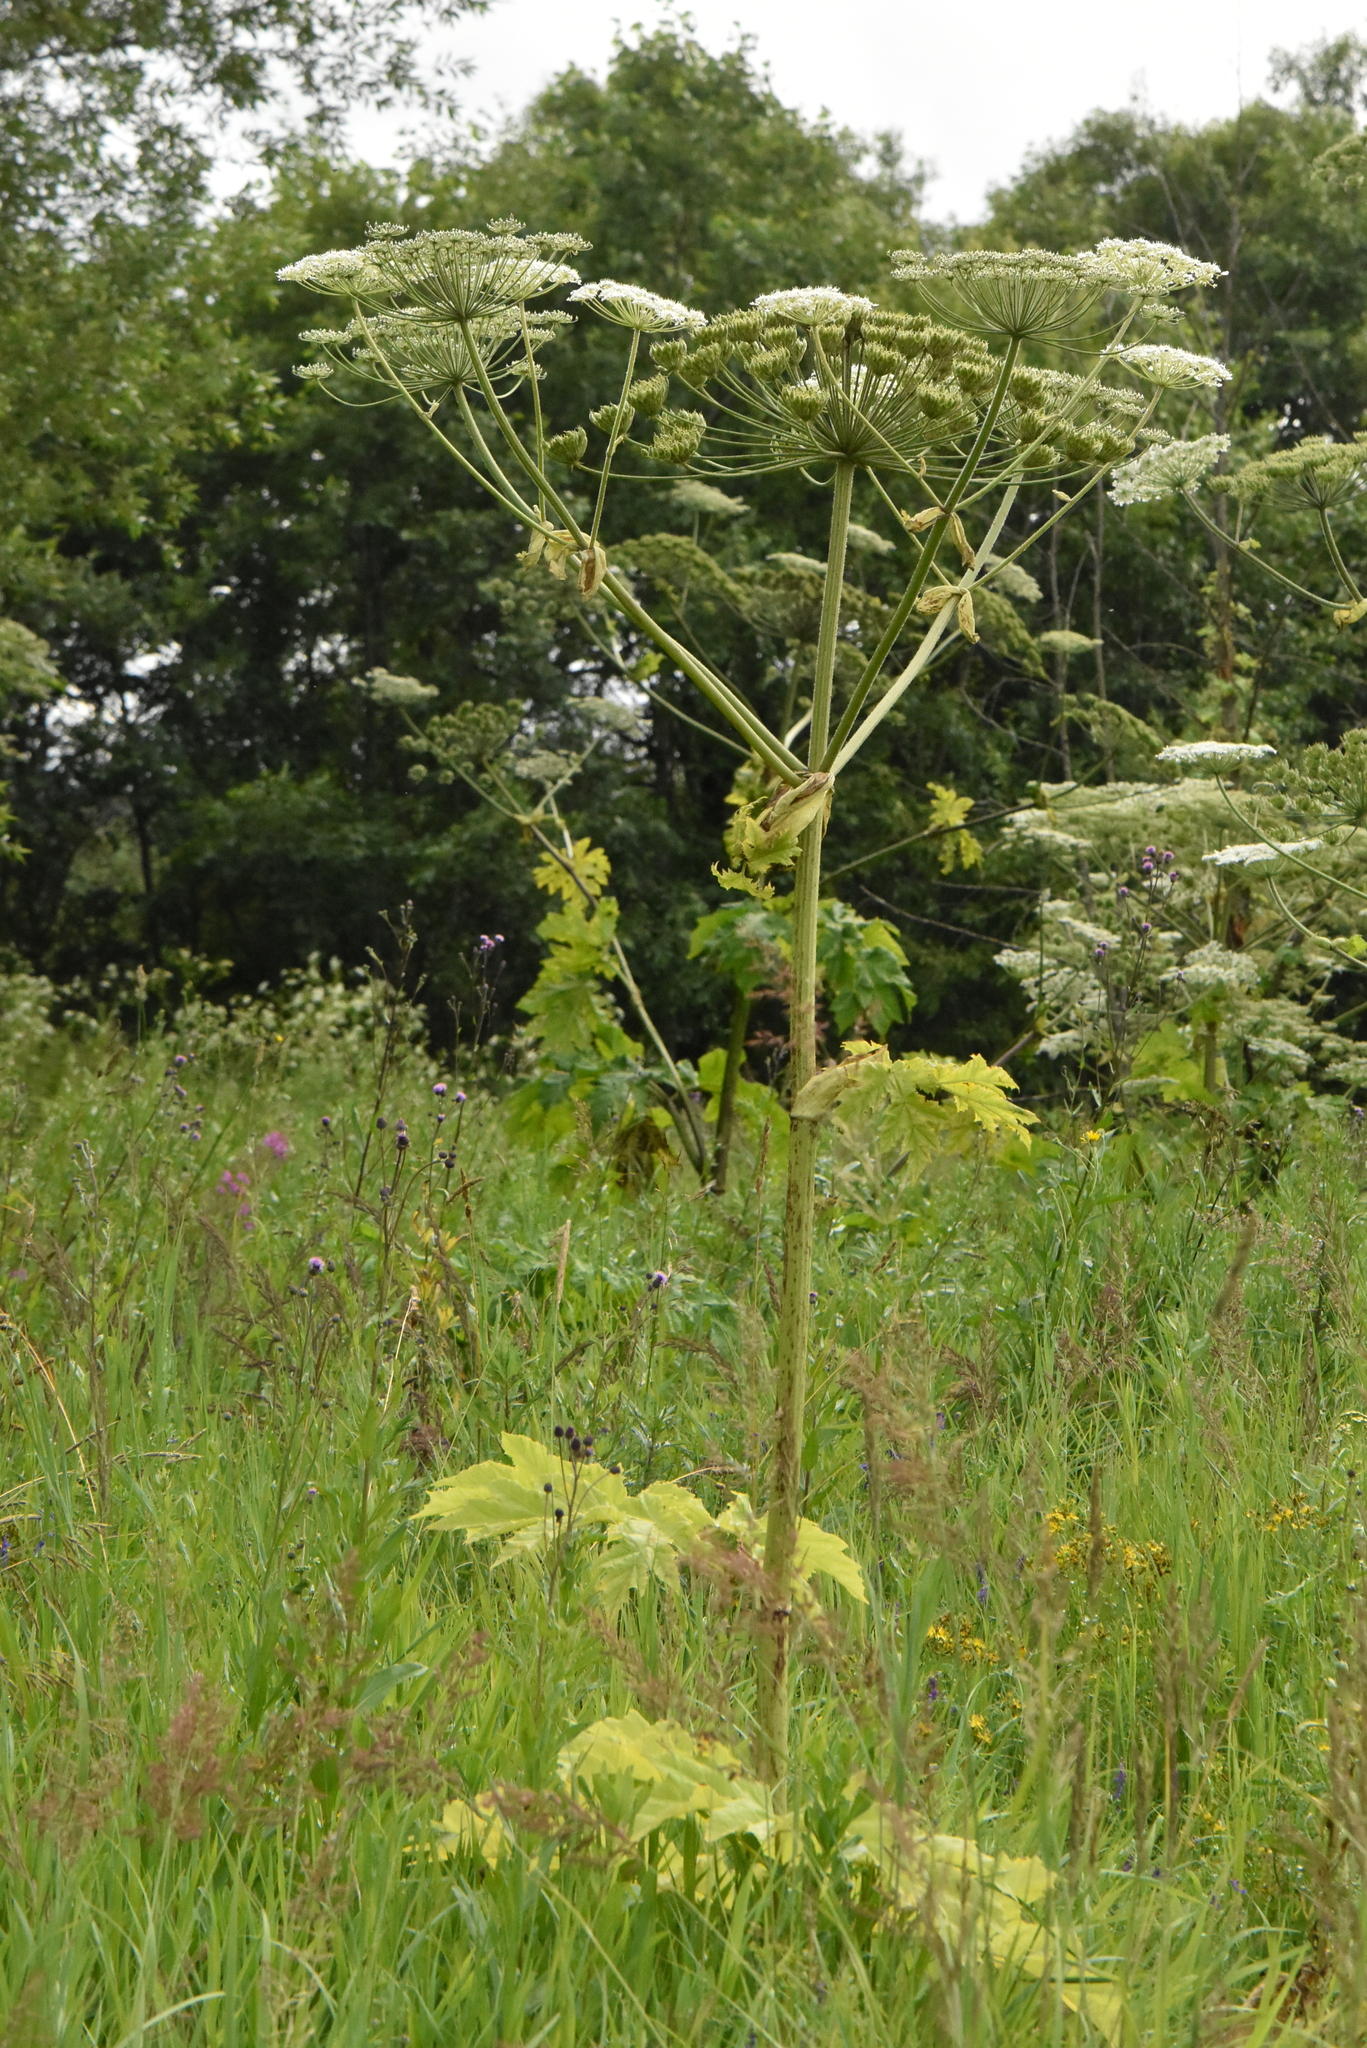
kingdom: Plantae
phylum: Tracheophyta
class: Magnoliopsida
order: Apiales
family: Apiaceae
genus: Heracleum
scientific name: Heracleum sosnowskyi
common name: Sosnowsky's hogweed
